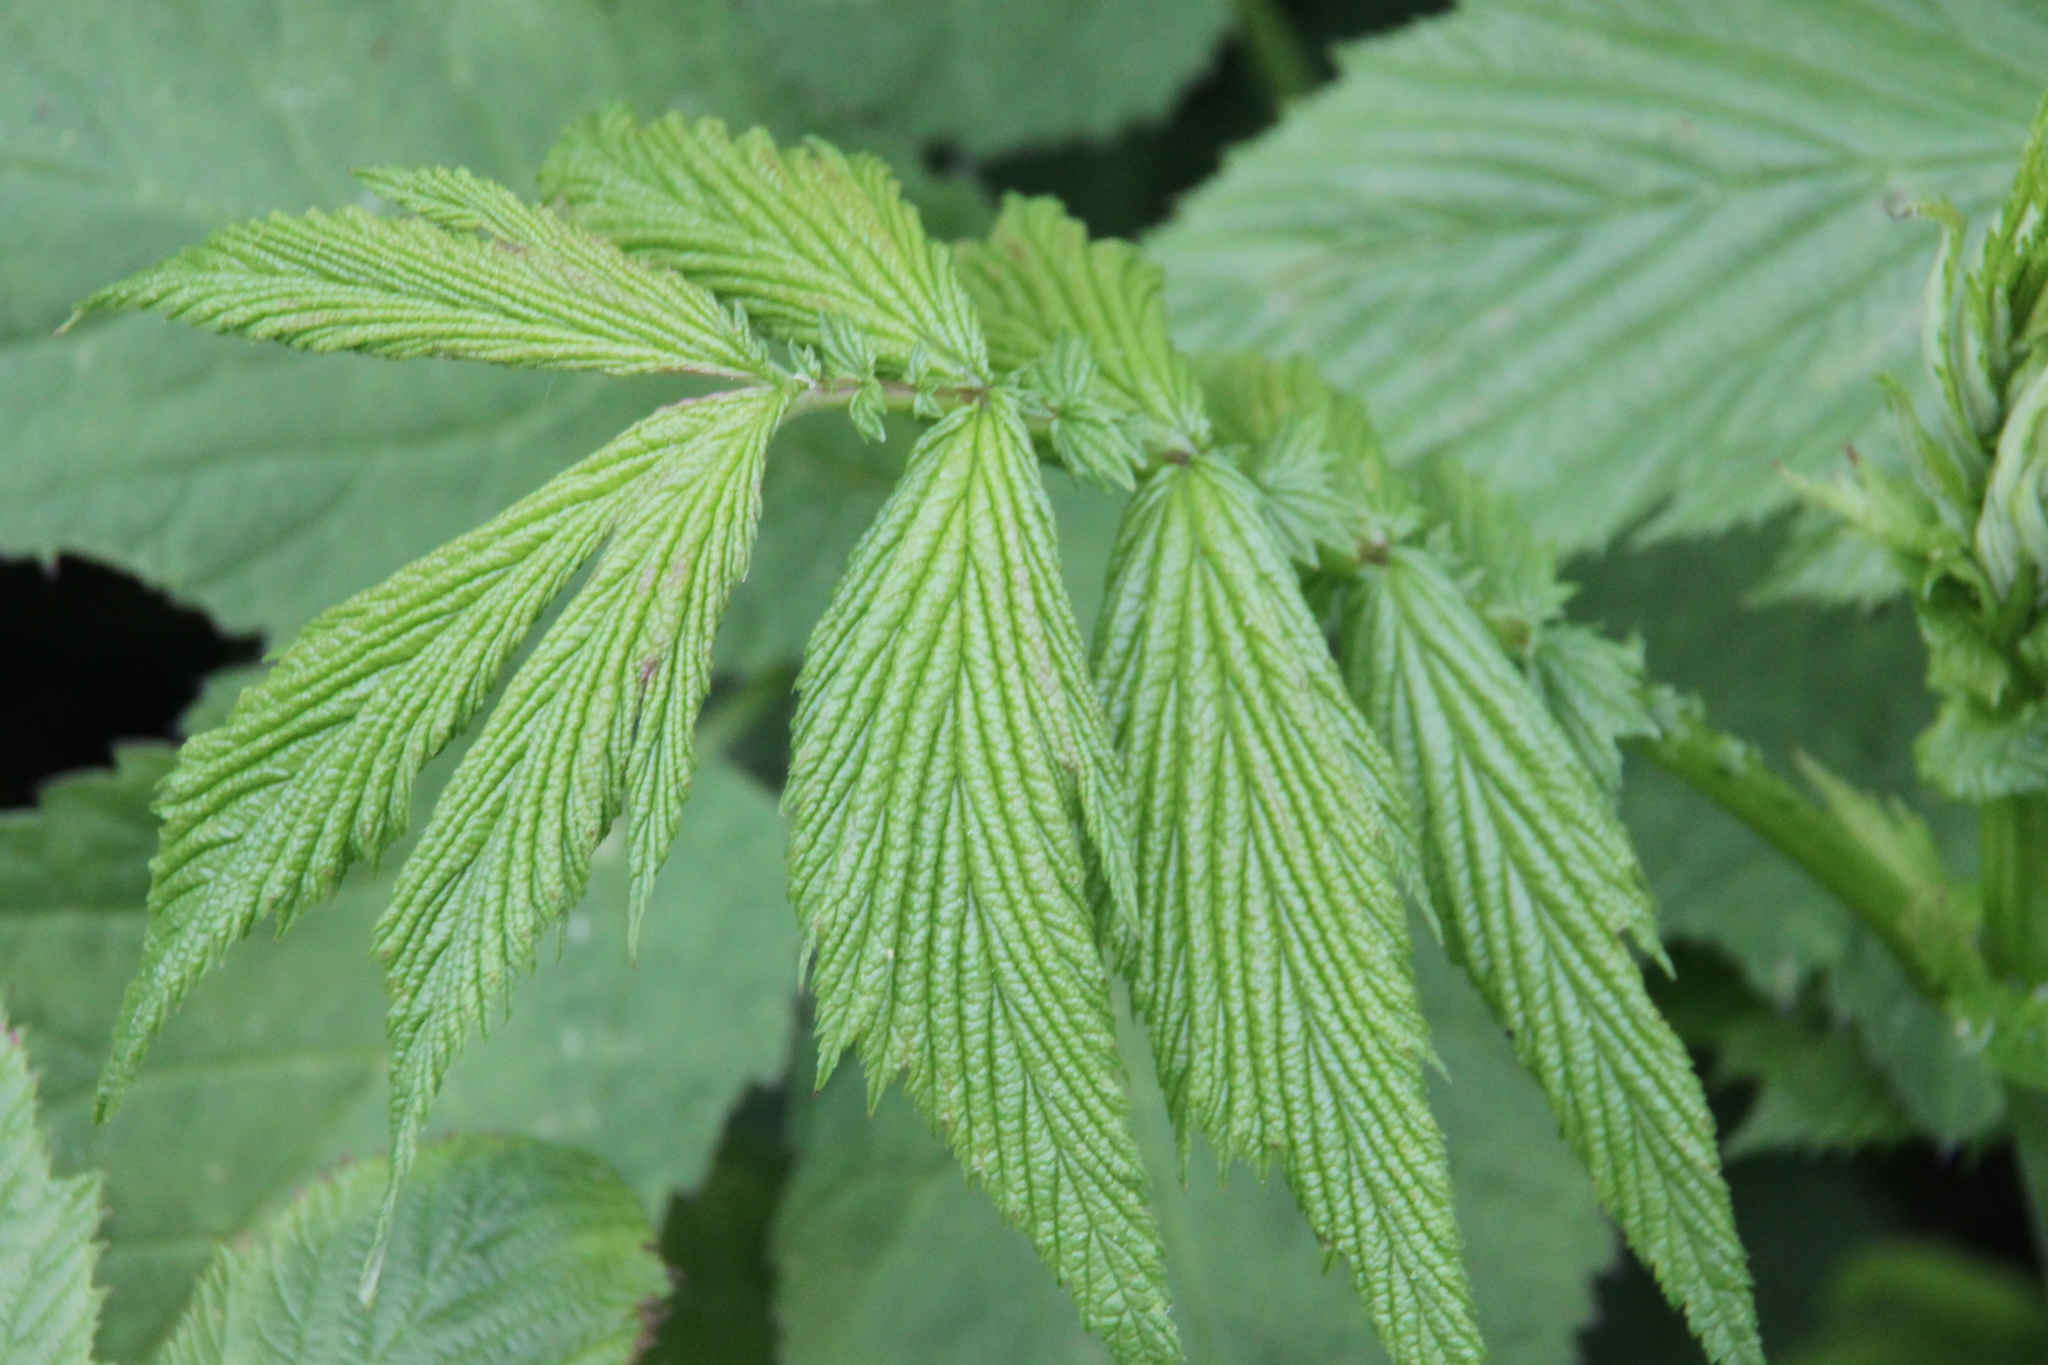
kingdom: Plantae
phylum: Tracheophyta
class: Magnoliopsida
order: Rosales
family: Rosaceae
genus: Filipendula
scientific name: Filipendula ulmaria
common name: Meadowsweet
